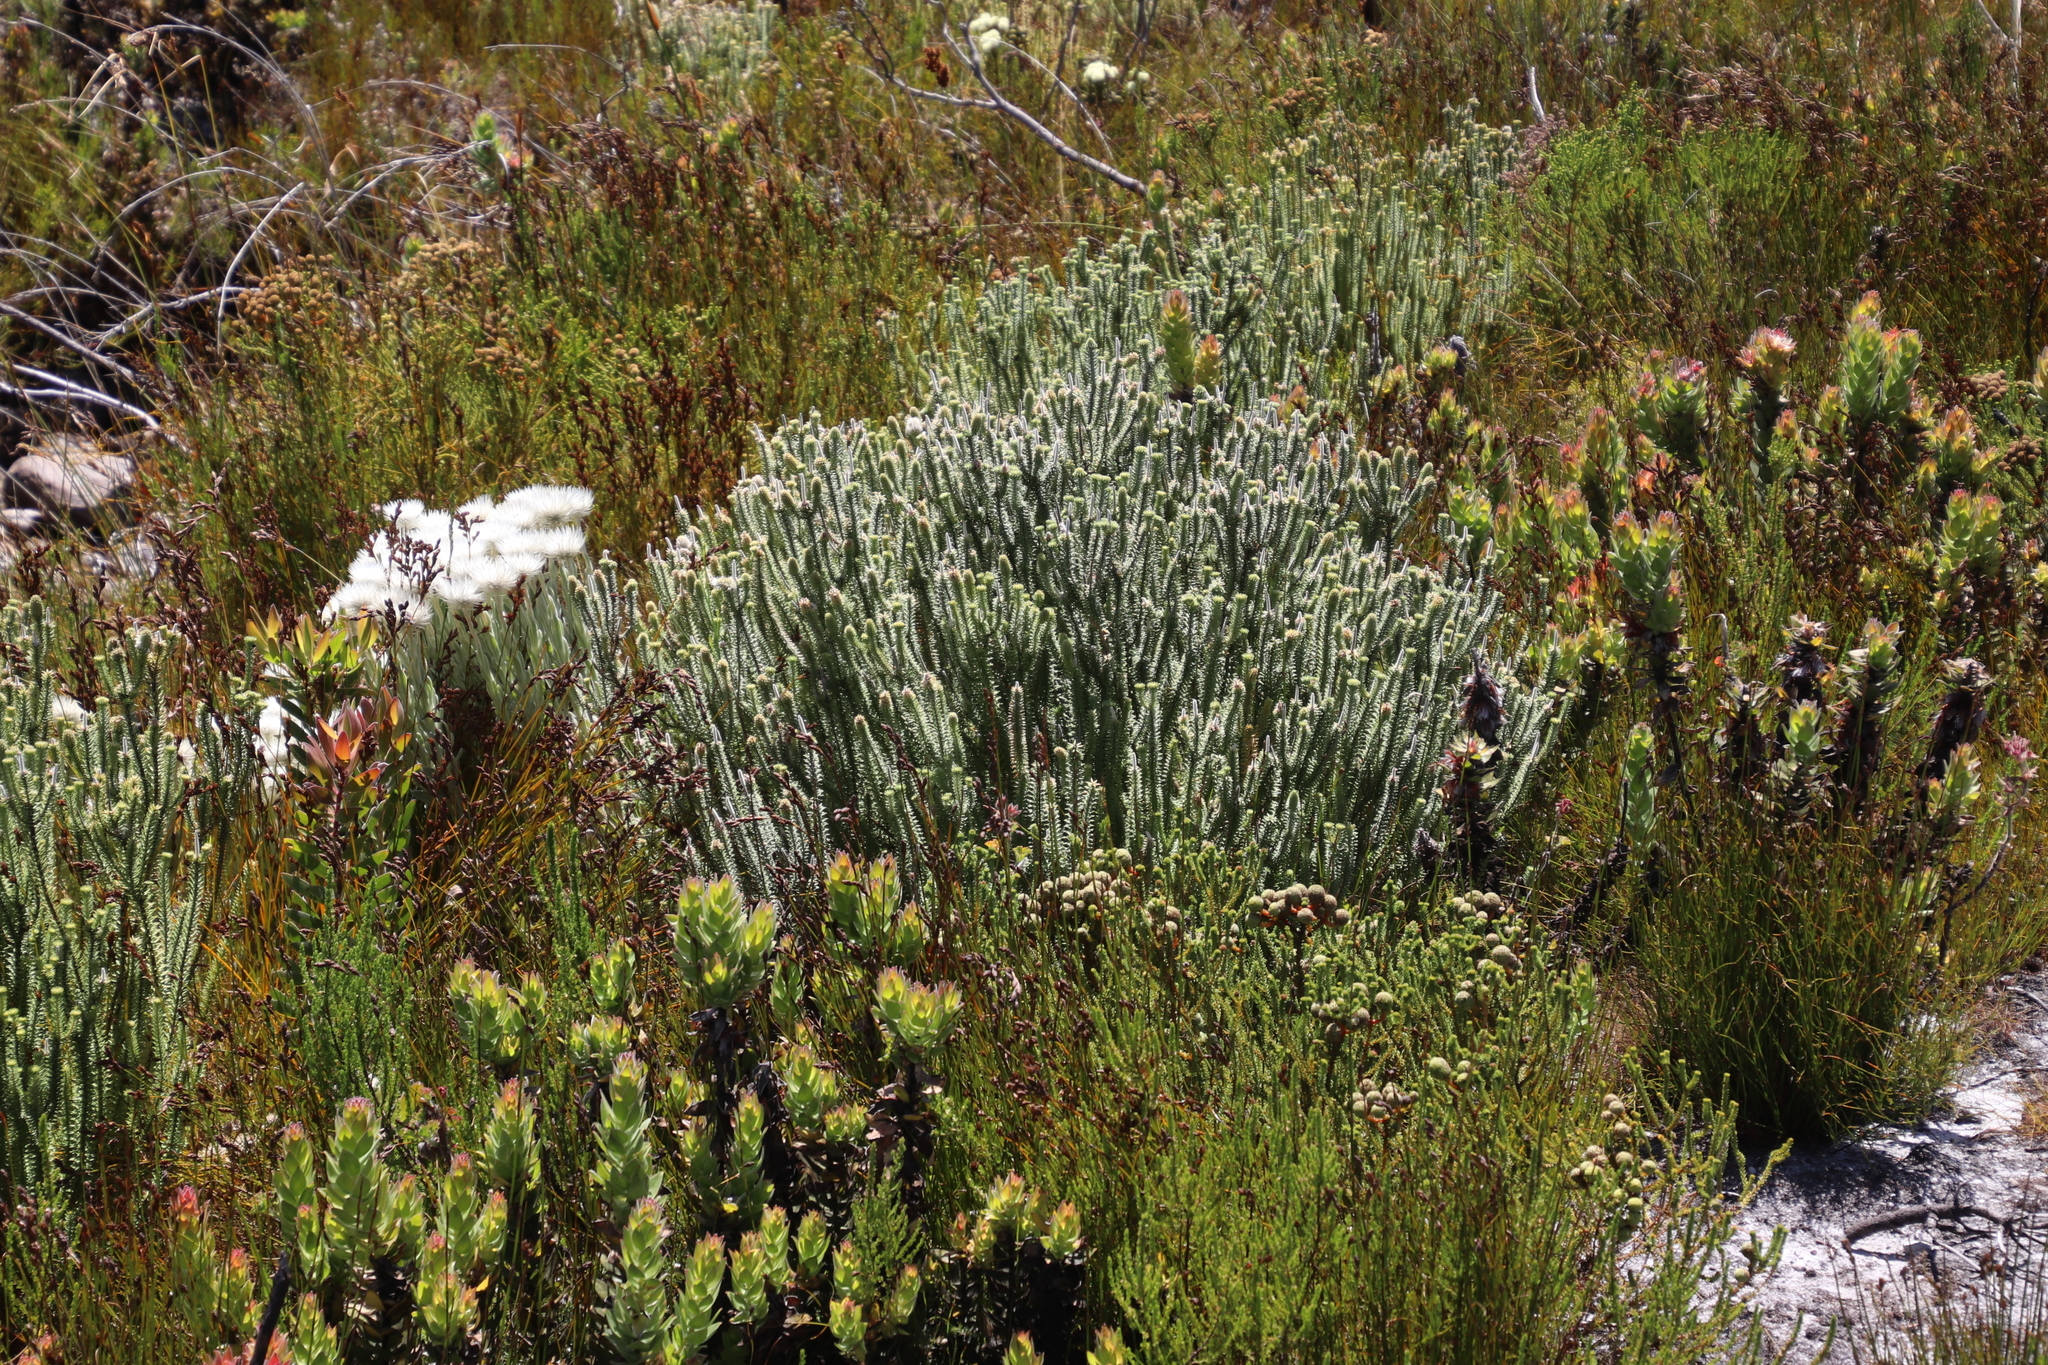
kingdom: Plantae
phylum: Tracheophyta
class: Magnoliopsida
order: Lamiales
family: Stilbaceae
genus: Stilbe
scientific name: Stilbe vestita
